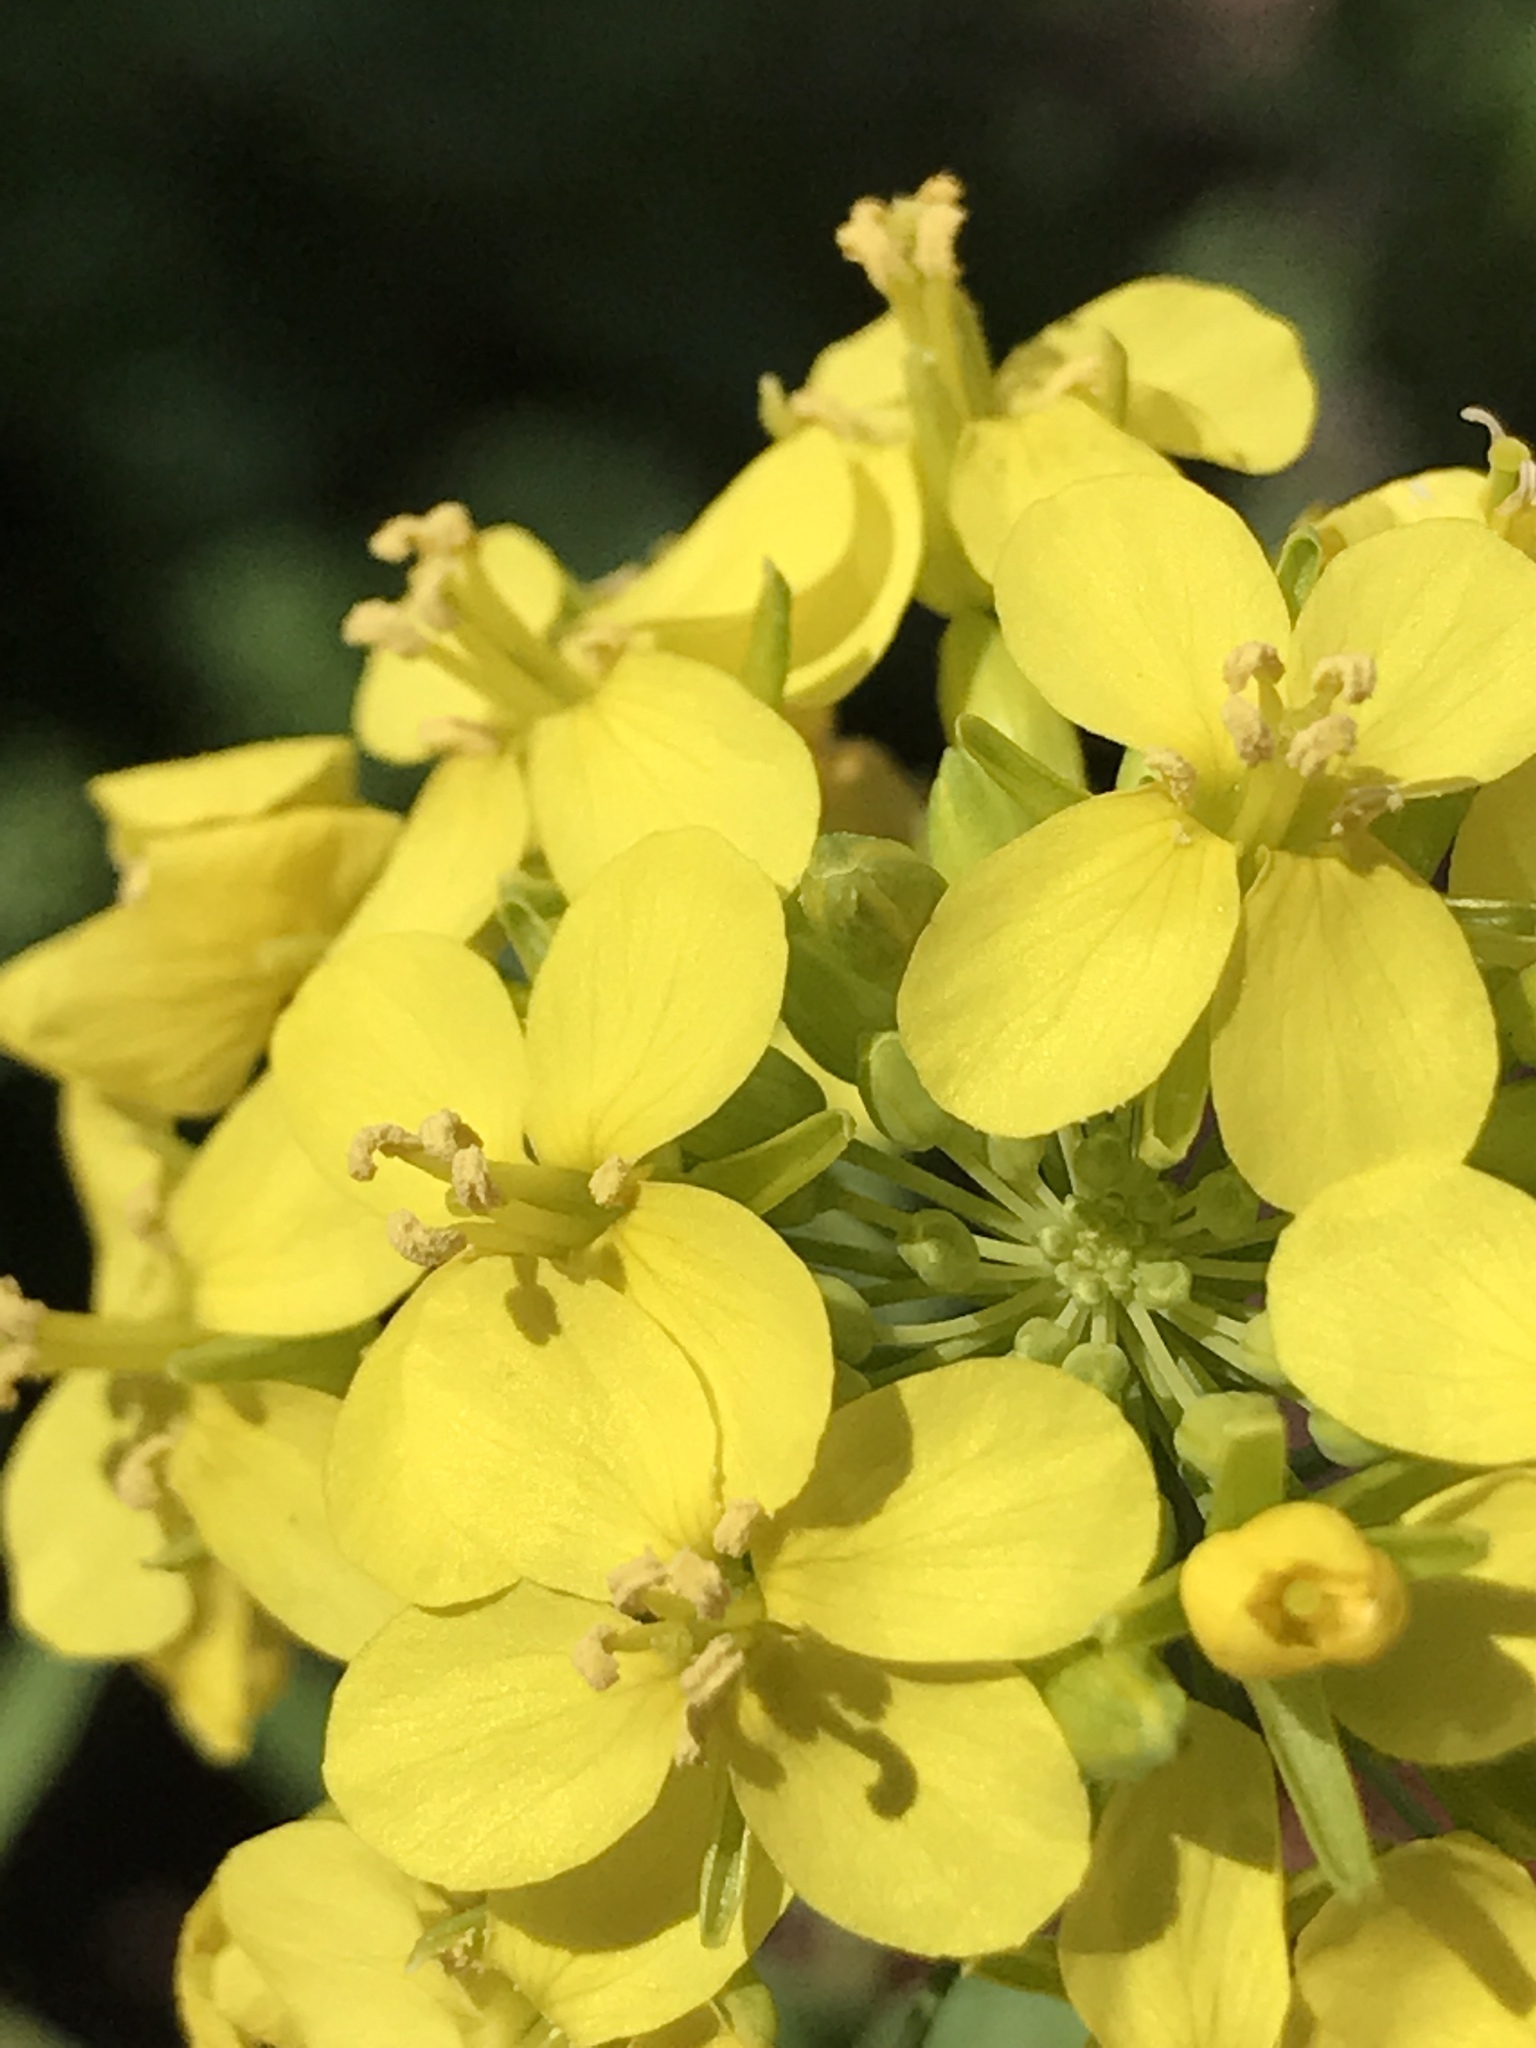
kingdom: Plantae
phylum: Tracheophyta
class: Magnoliopsida
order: Brassicales
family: Brassicaceae
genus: Brassica
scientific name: Brassica rapa
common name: Field mustard
